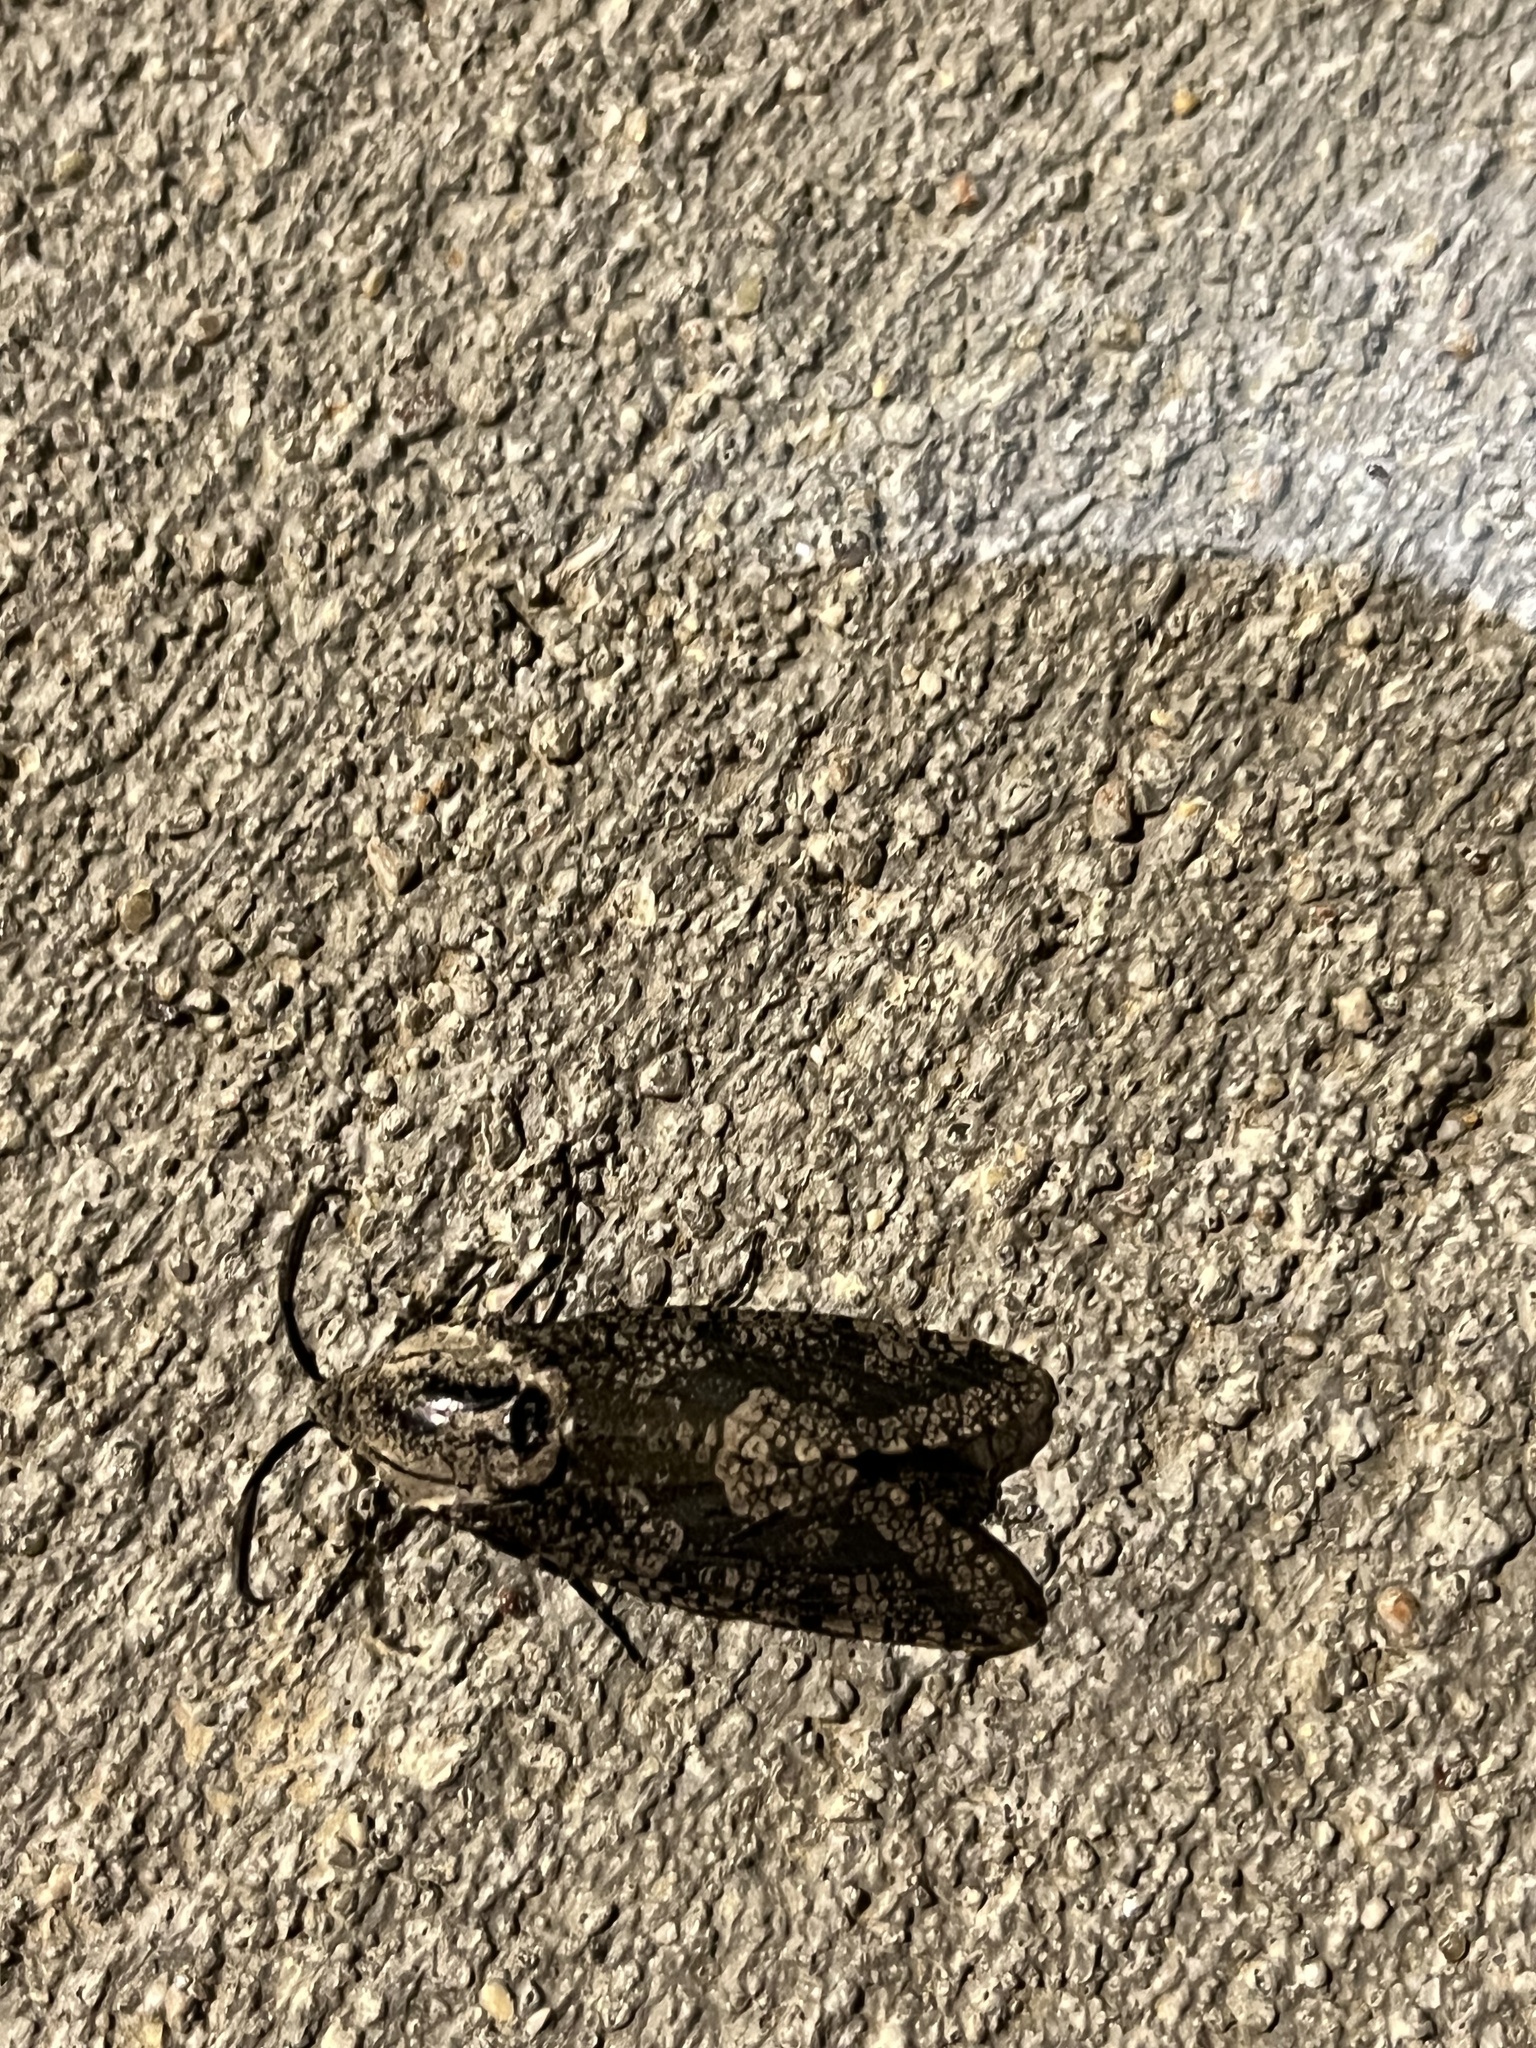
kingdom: Animalia
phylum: Arthropoda
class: Insecta
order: Lepidoptera
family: Cossidae
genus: Prionoxystus
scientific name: Prionoxystus robiniae
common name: Carpenterworm
